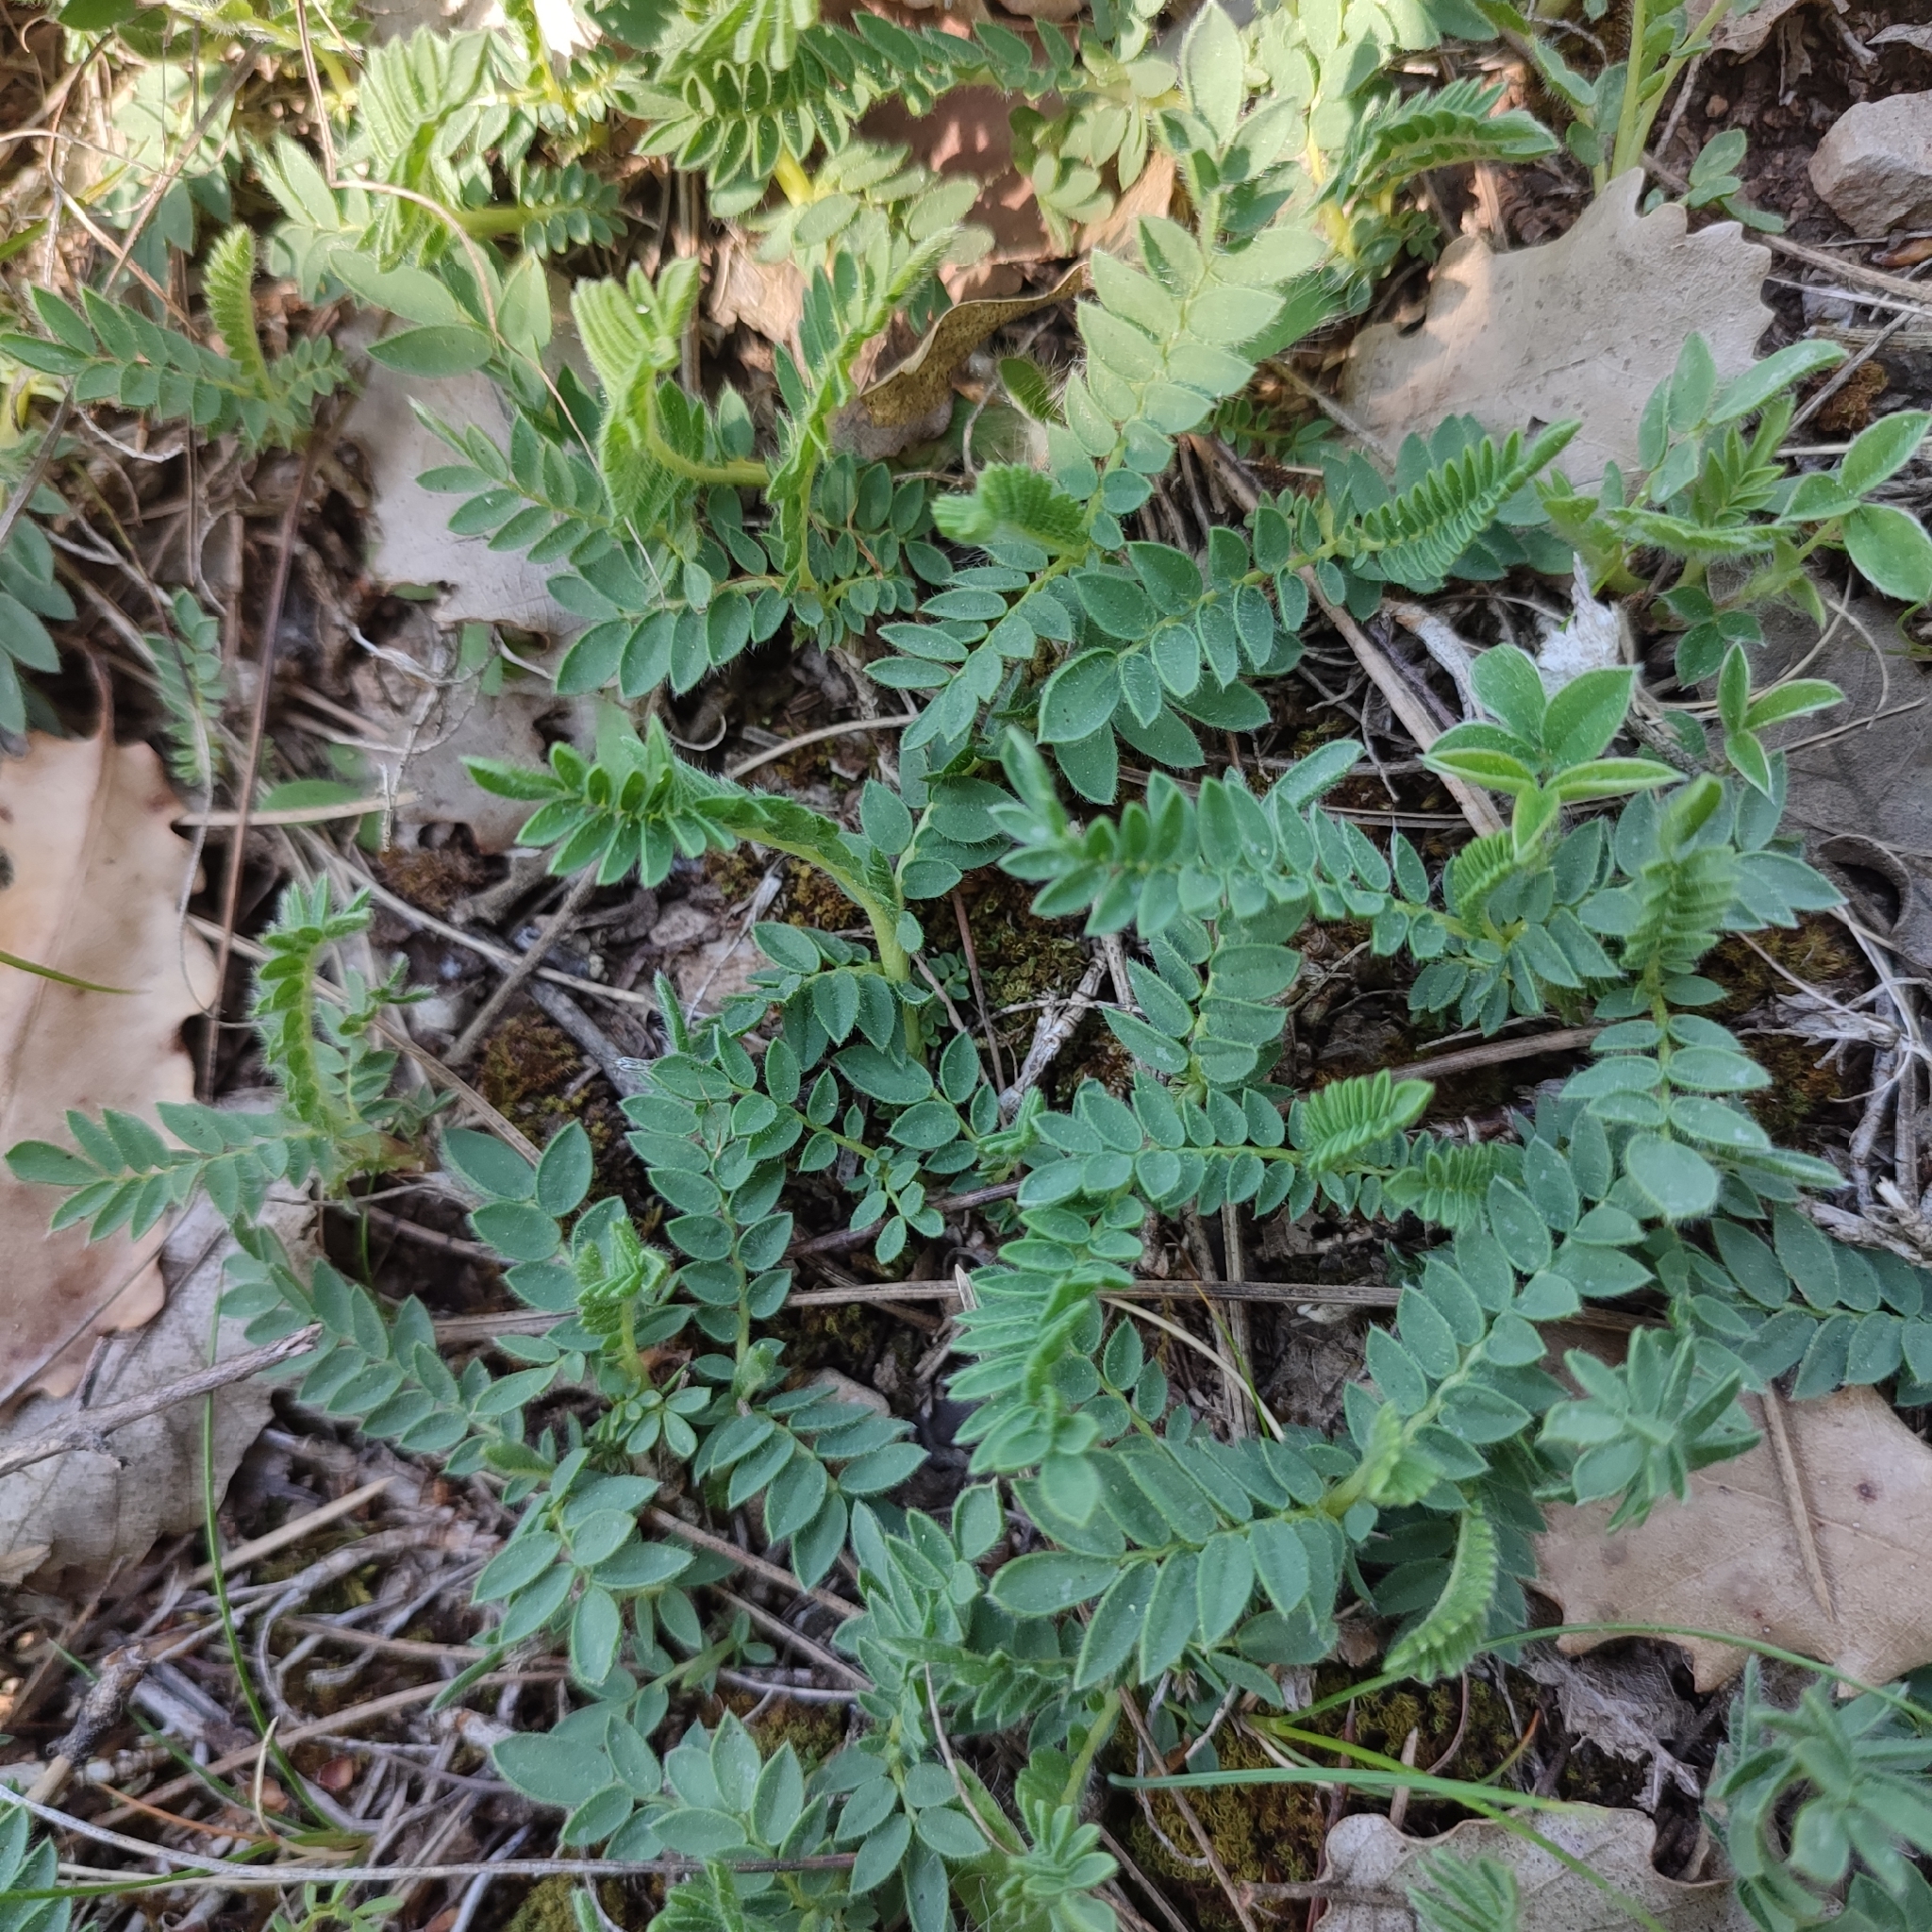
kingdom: Plantae
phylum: Tracheophyta
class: Magnoliopsida
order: Fabales
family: Fabaceae
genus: Anthyllis
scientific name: Anthyllis montana
